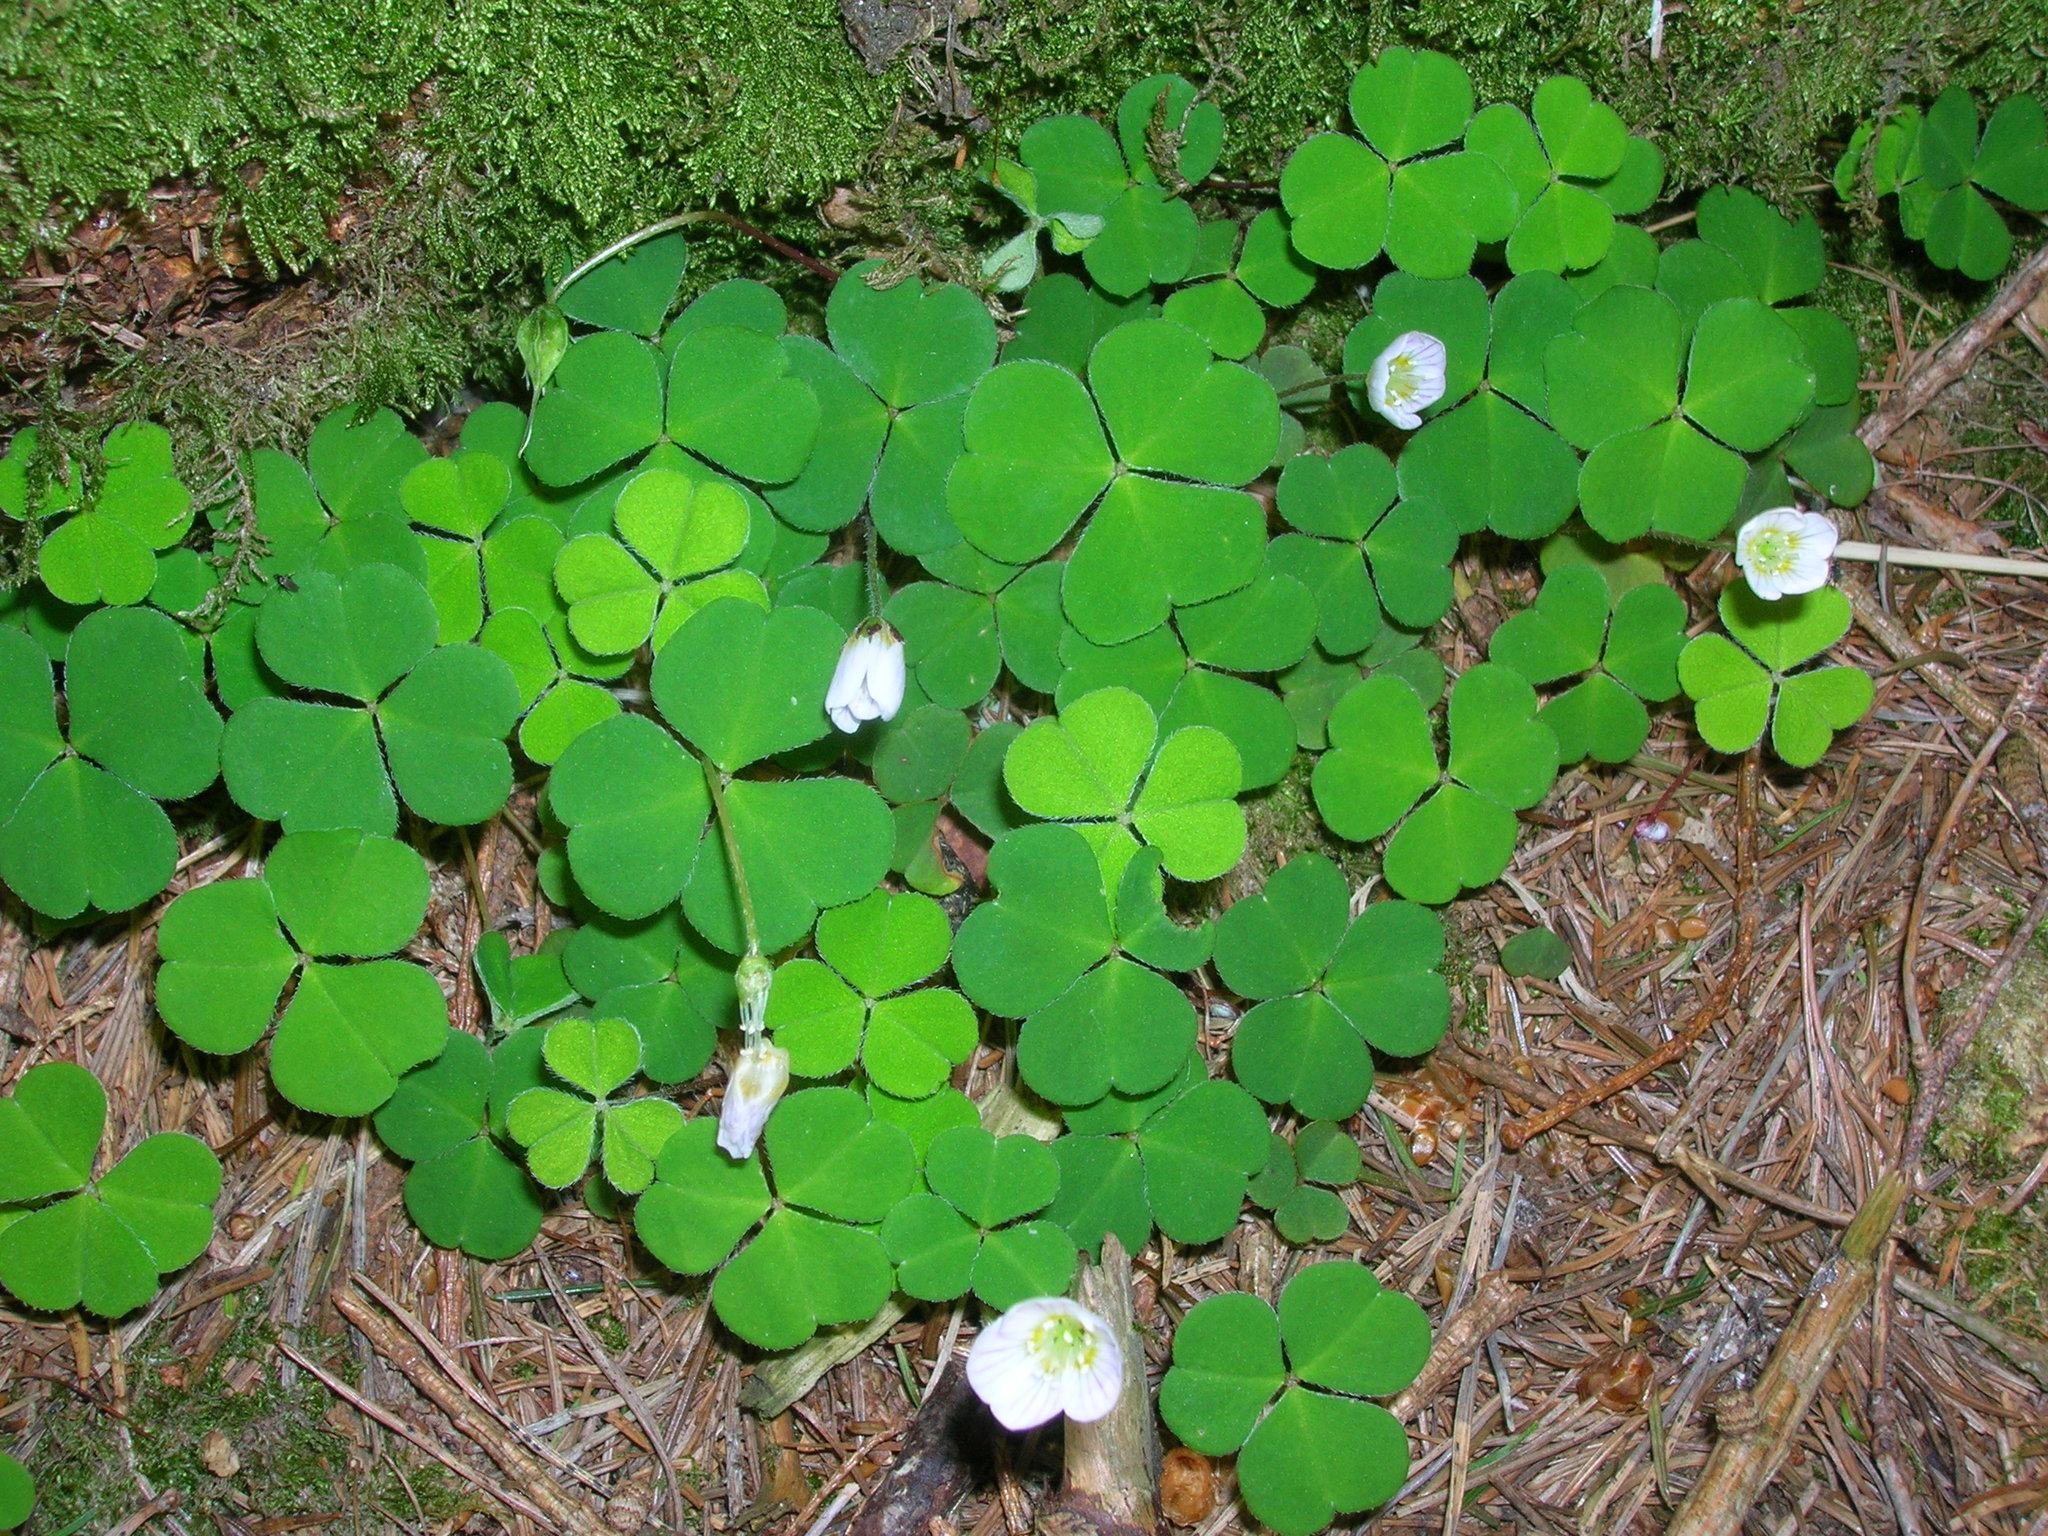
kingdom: Plantae
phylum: Tracheophyta
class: Magnoliopsida
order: Oxalidales
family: Oxalidaceae
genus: Oxalis
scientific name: Oxalis acetosella
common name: Wood-sorrel
